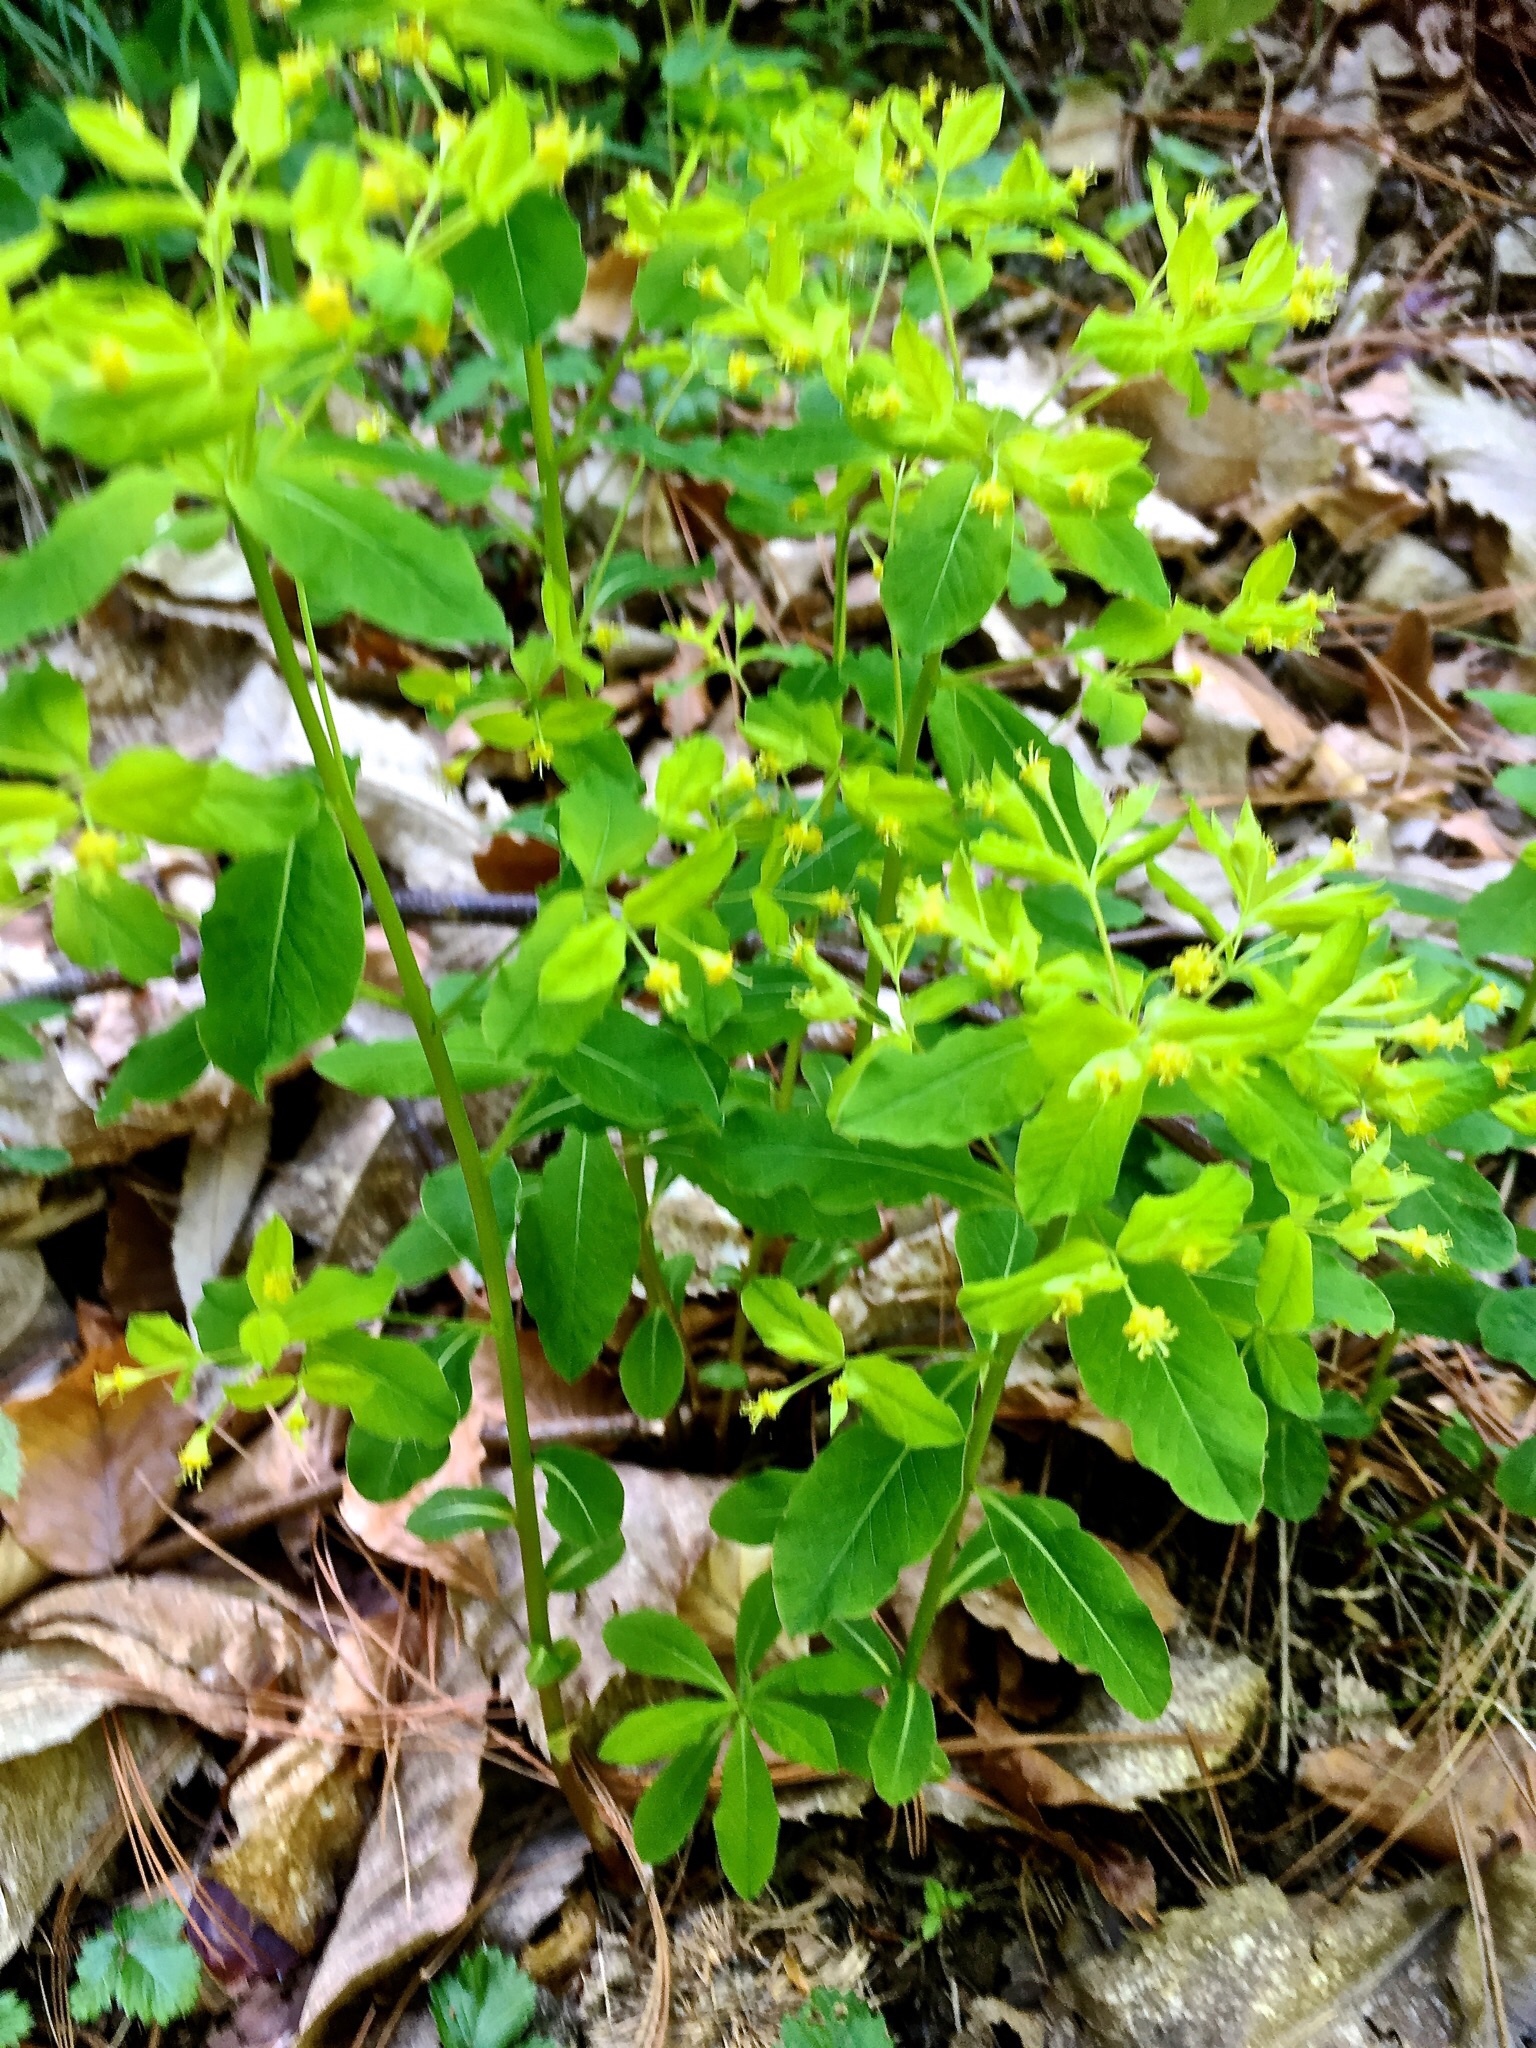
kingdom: Plantae
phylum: Tracheophyta
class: Magnoliopsida
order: Malpighiales
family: Euphorbiaceae
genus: Euphorbia
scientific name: Euphorbia carniolica
